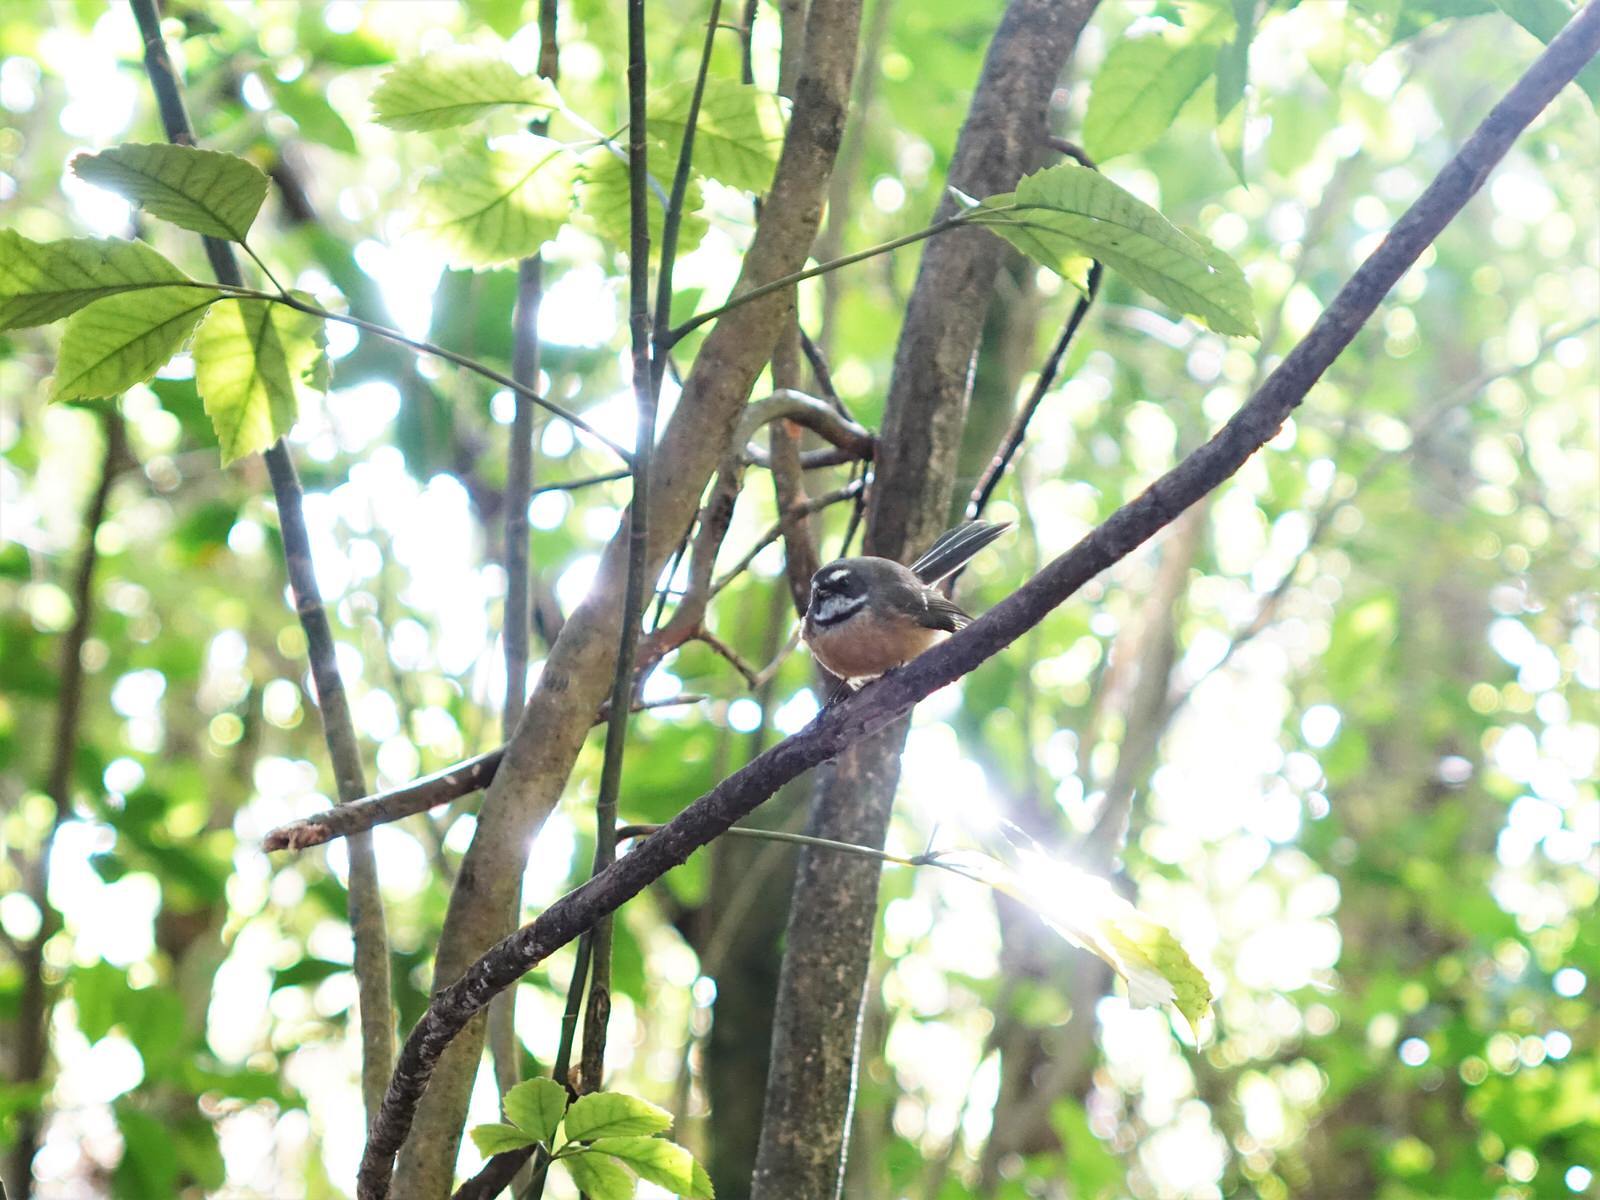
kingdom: Animalia
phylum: Chordata
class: Aves
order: Passeriformes
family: Rhipiduridae
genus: Rhipidura
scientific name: Rhipidura fuliginosa
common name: New zealand fantail
